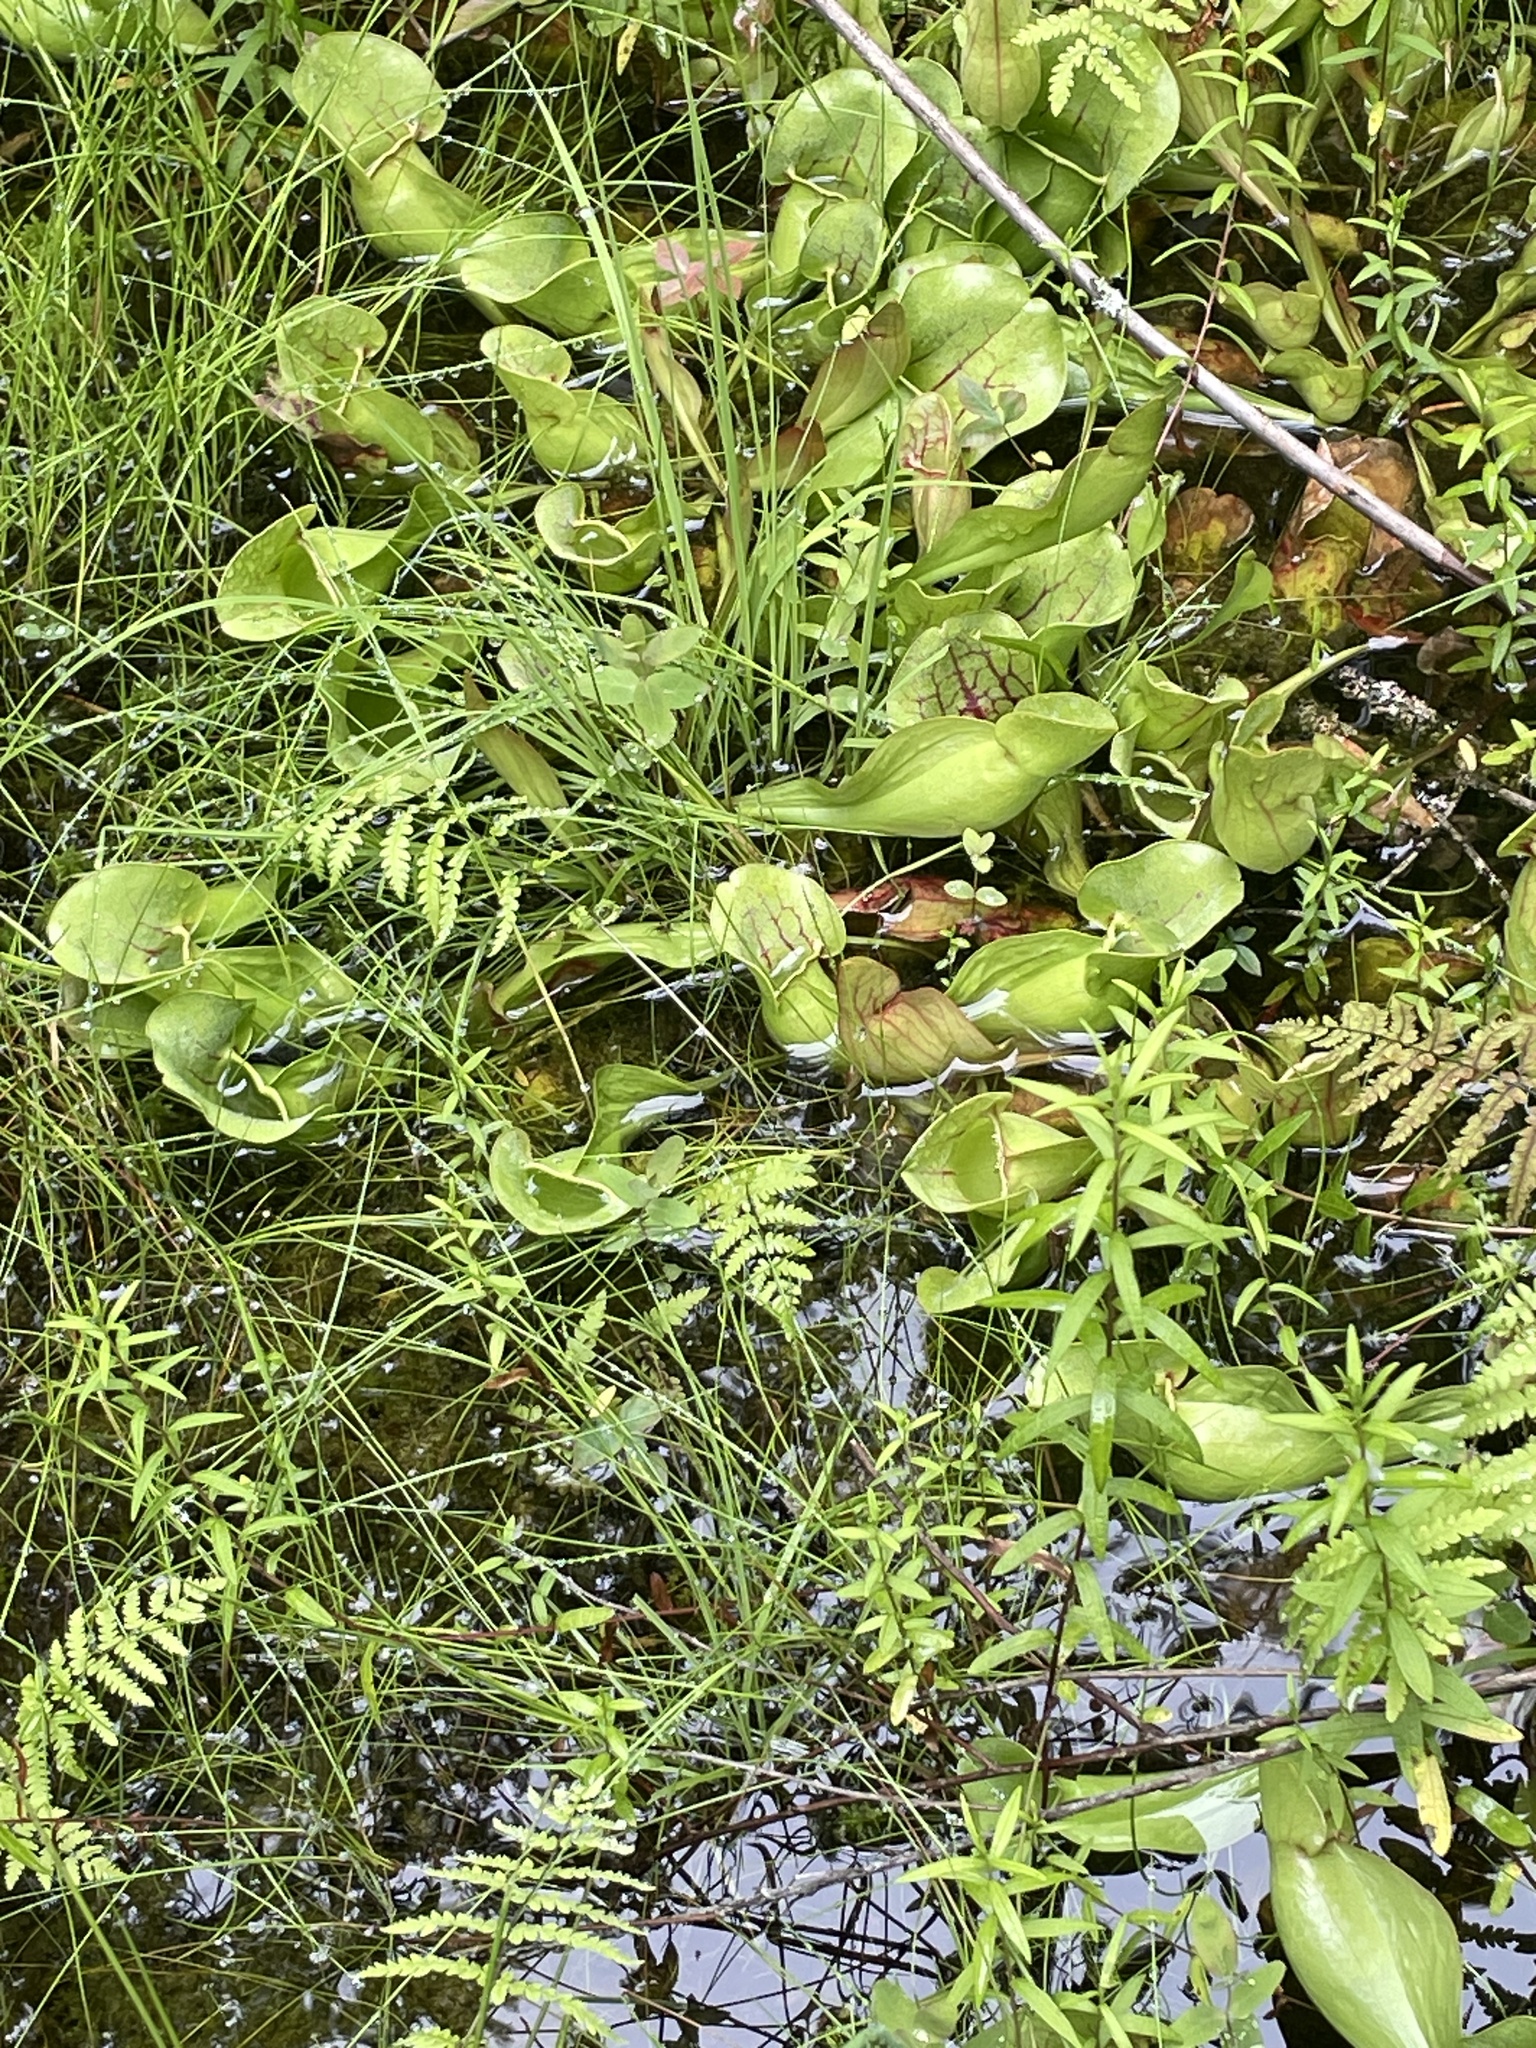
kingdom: Plantae
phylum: Tracheophyta
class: Magnoliopsida
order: Ericales
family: Sarraceniaceae
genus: Sarracenia
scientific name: Sarracenia purpurea
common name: Pitcherplant
